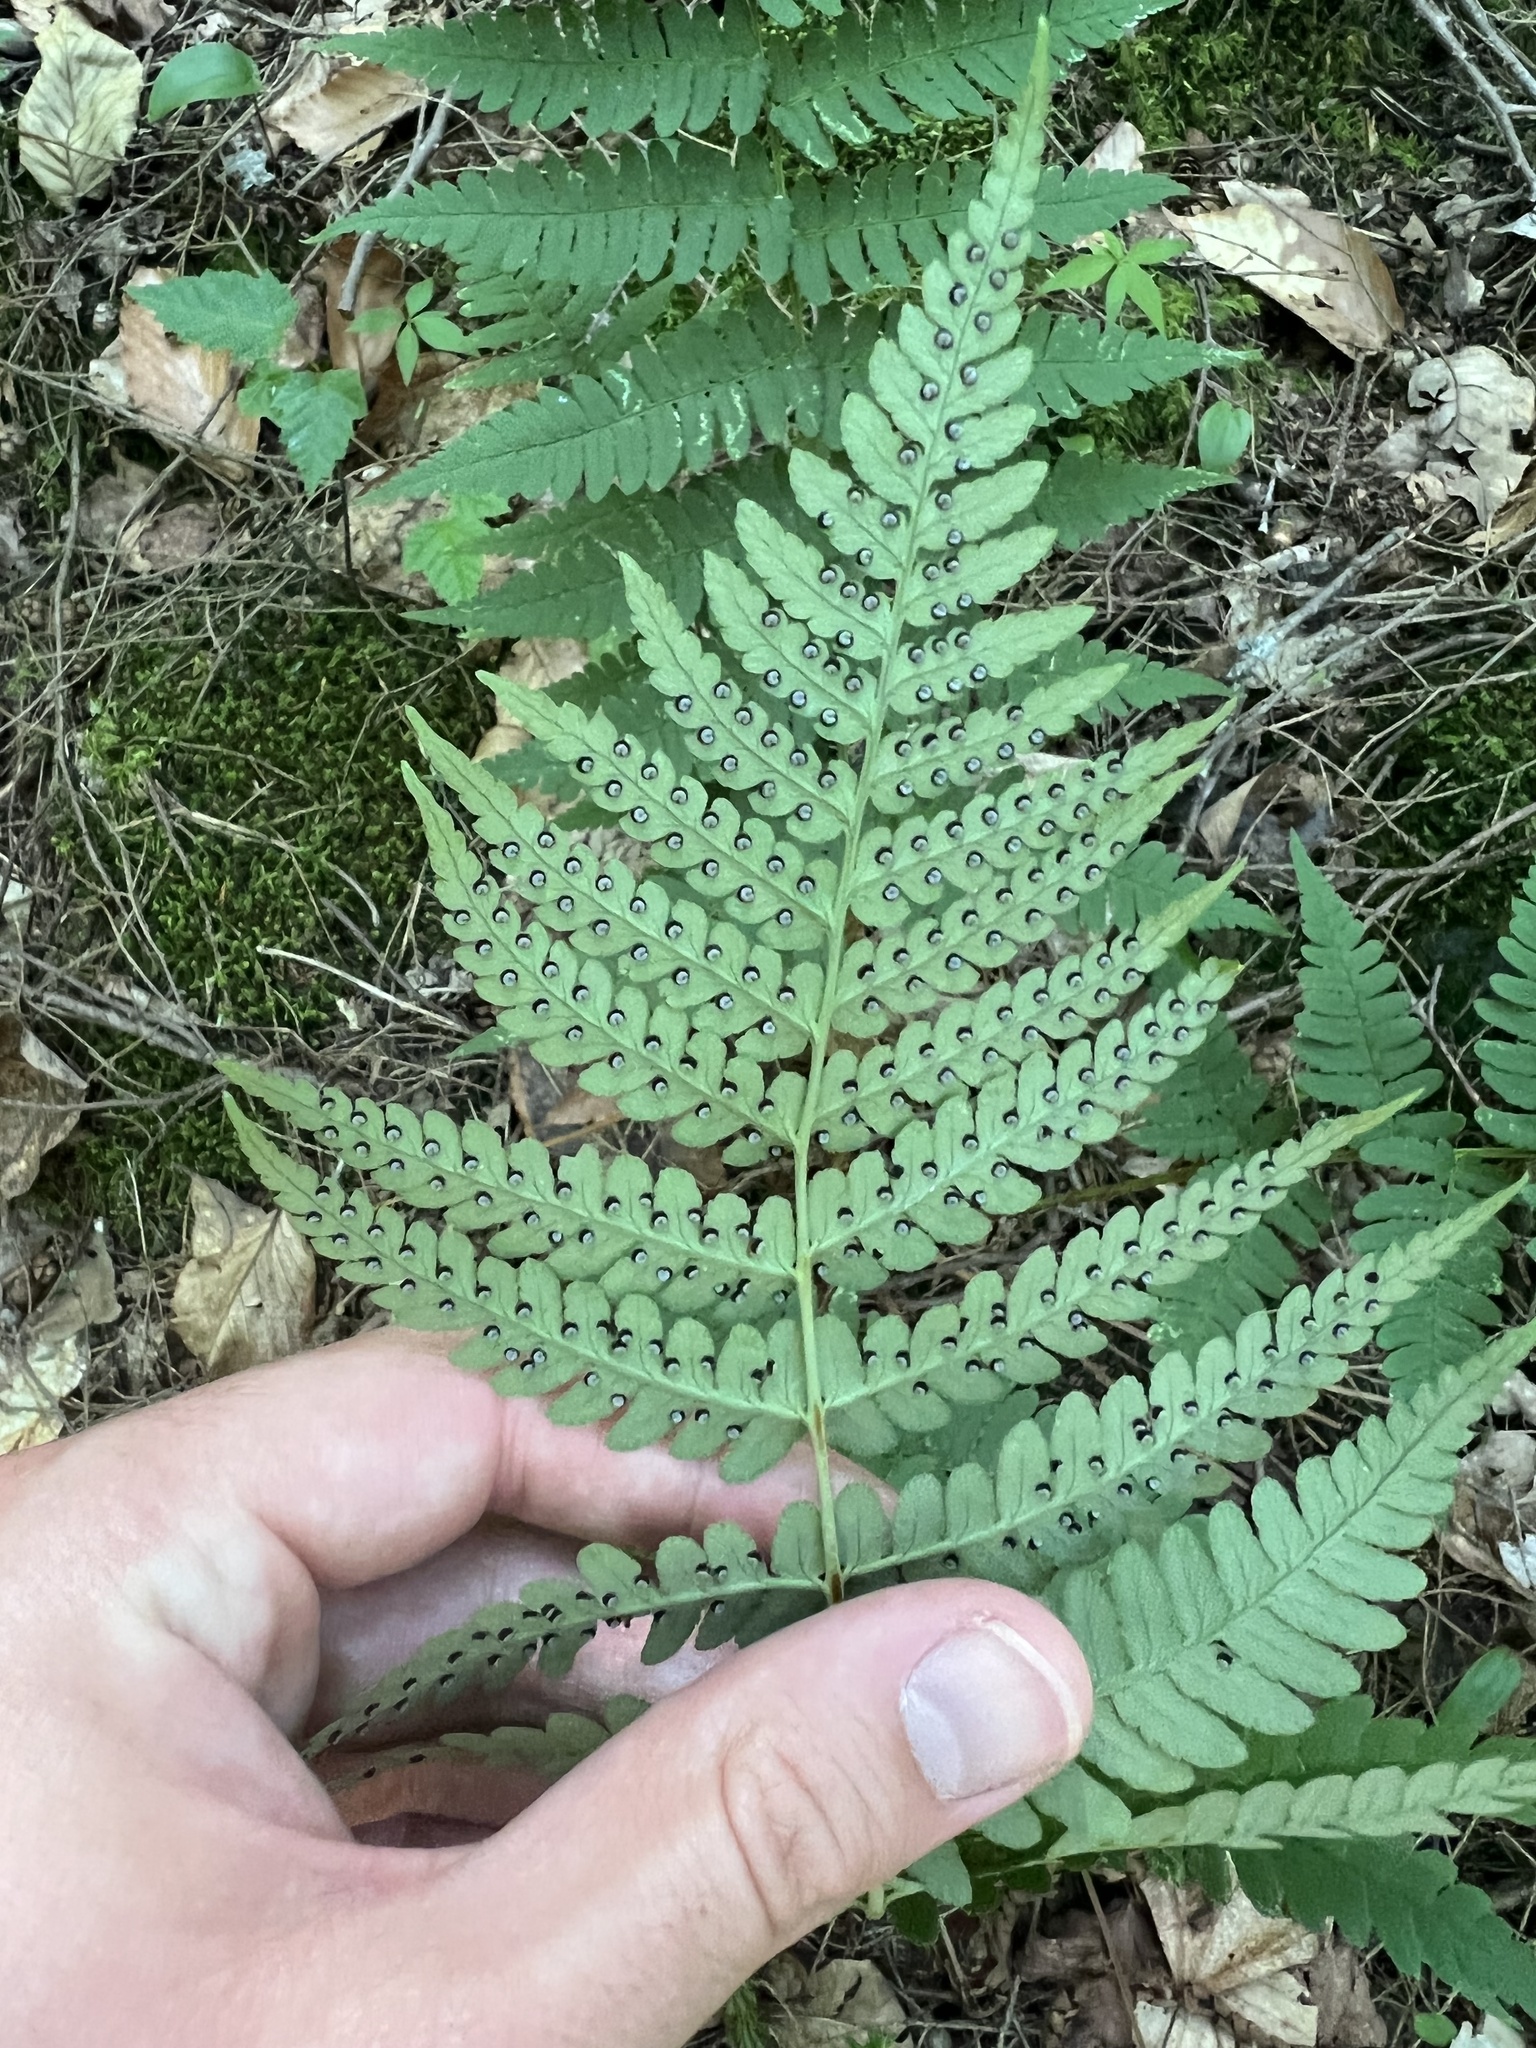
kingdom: Plantae
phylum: Tracheophyta
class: Polypodiopsida
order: Polypodiales
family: Dryopteridaceae
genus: Dryopteris
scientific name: Dryopteris marginalis
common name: Marginal wood fern
